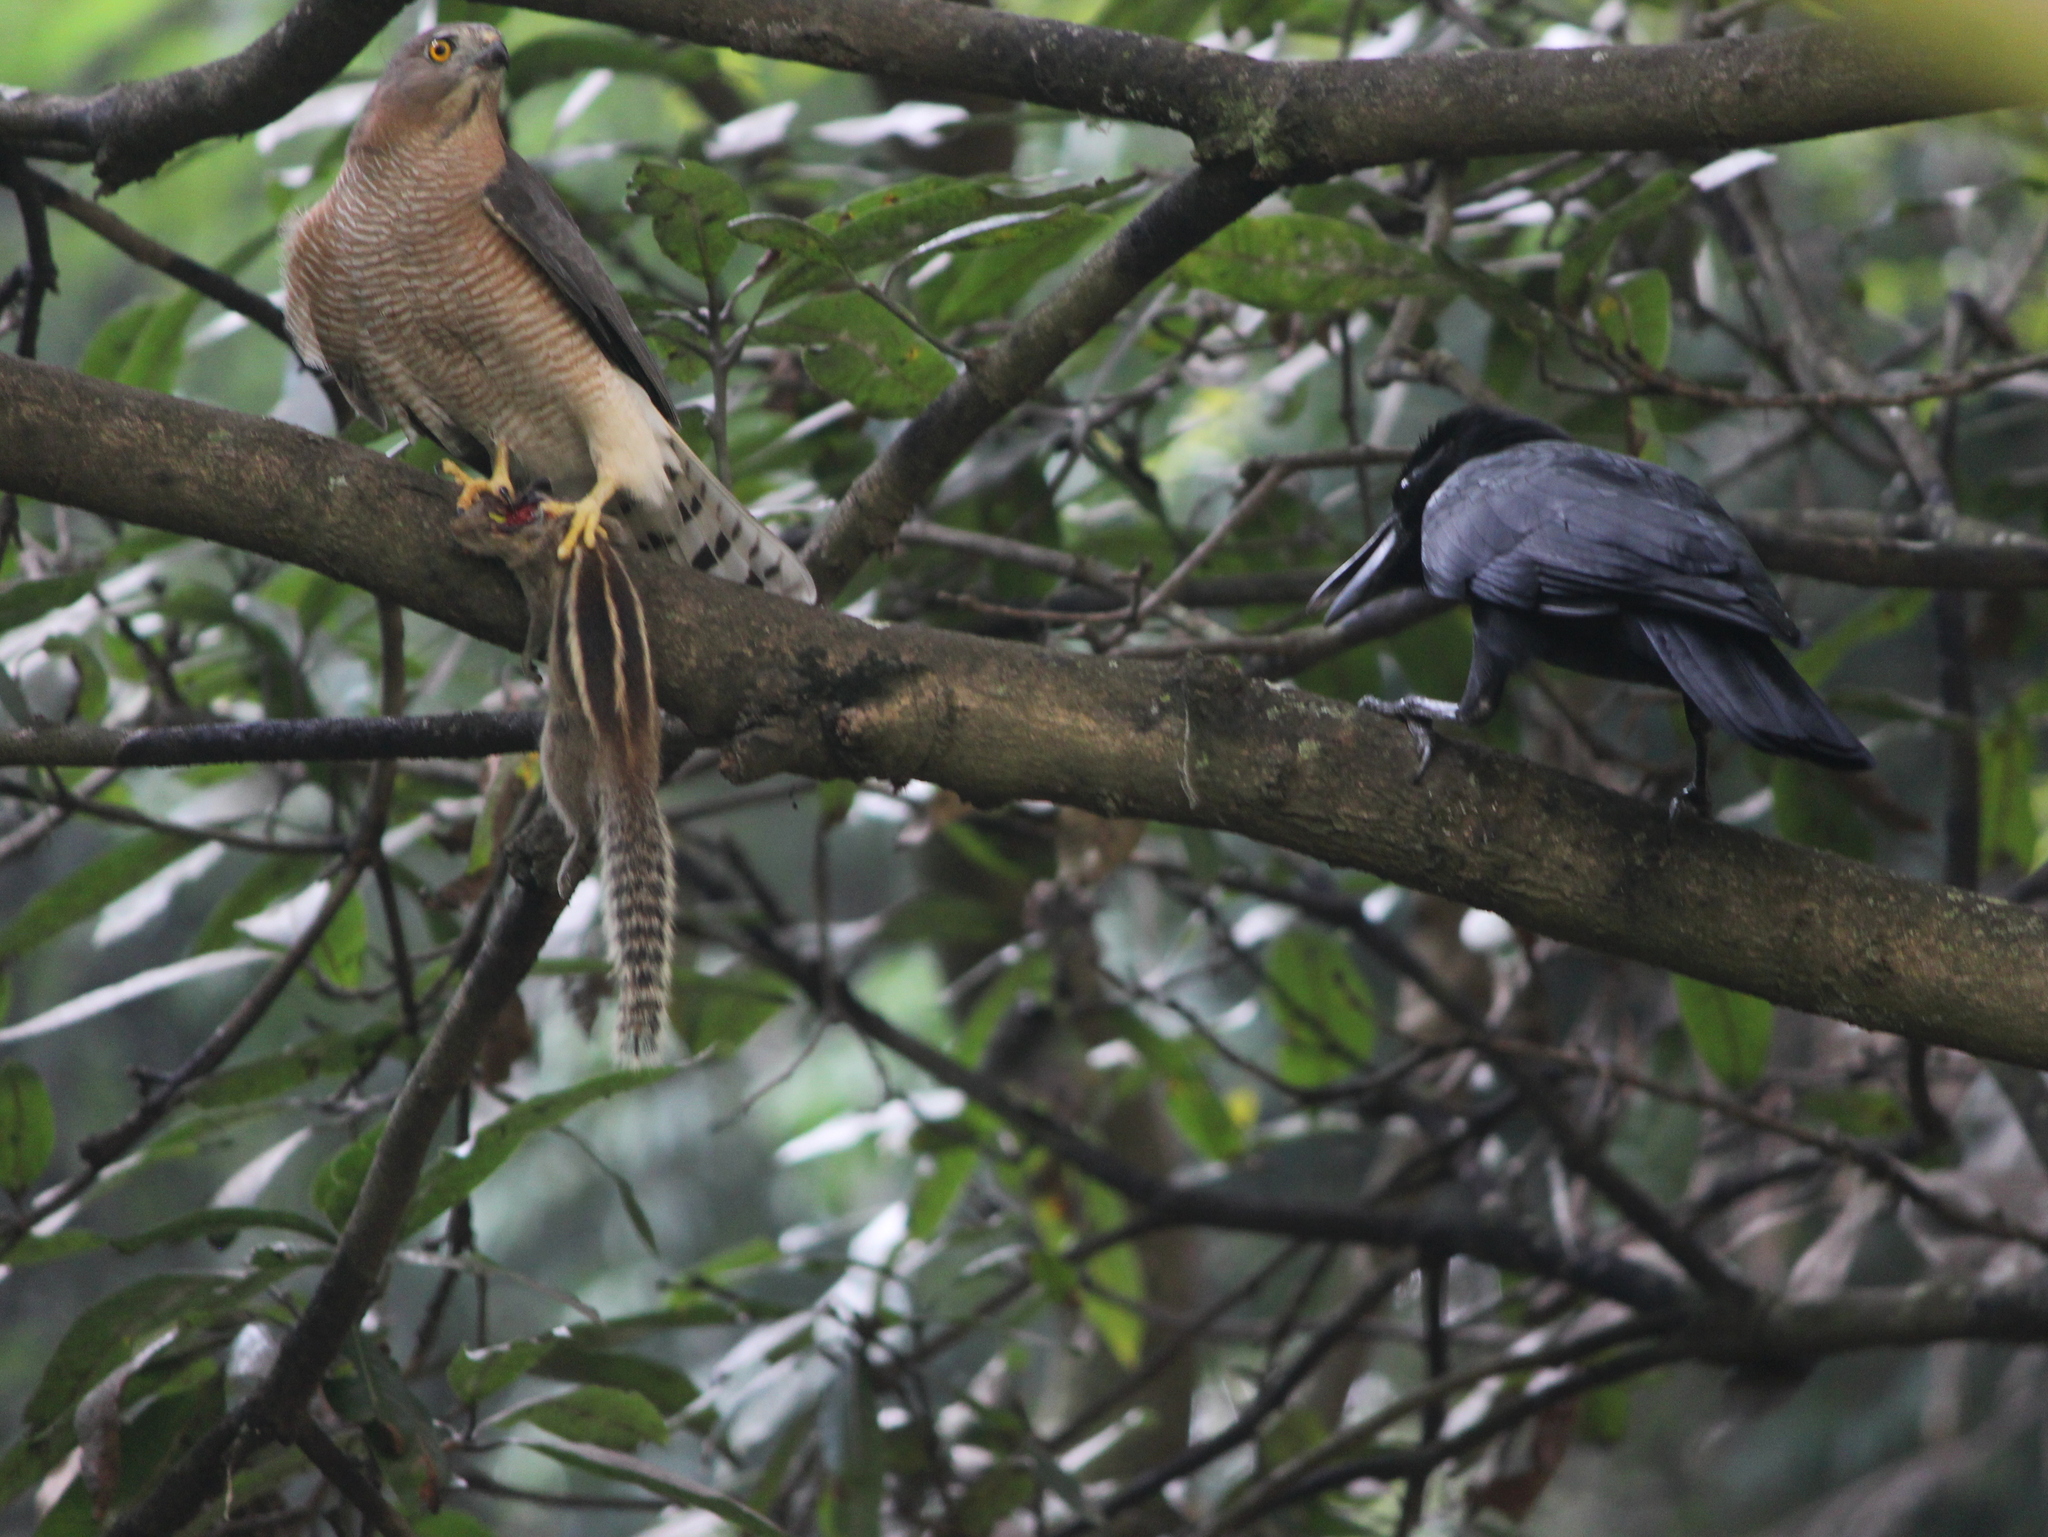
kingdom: Animalia
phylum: Chordata
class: Mammalia
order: Rodentia
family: Sciuridae
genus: Funambulus
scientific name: Funambulus palmarum
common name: Indian palm squirrel
